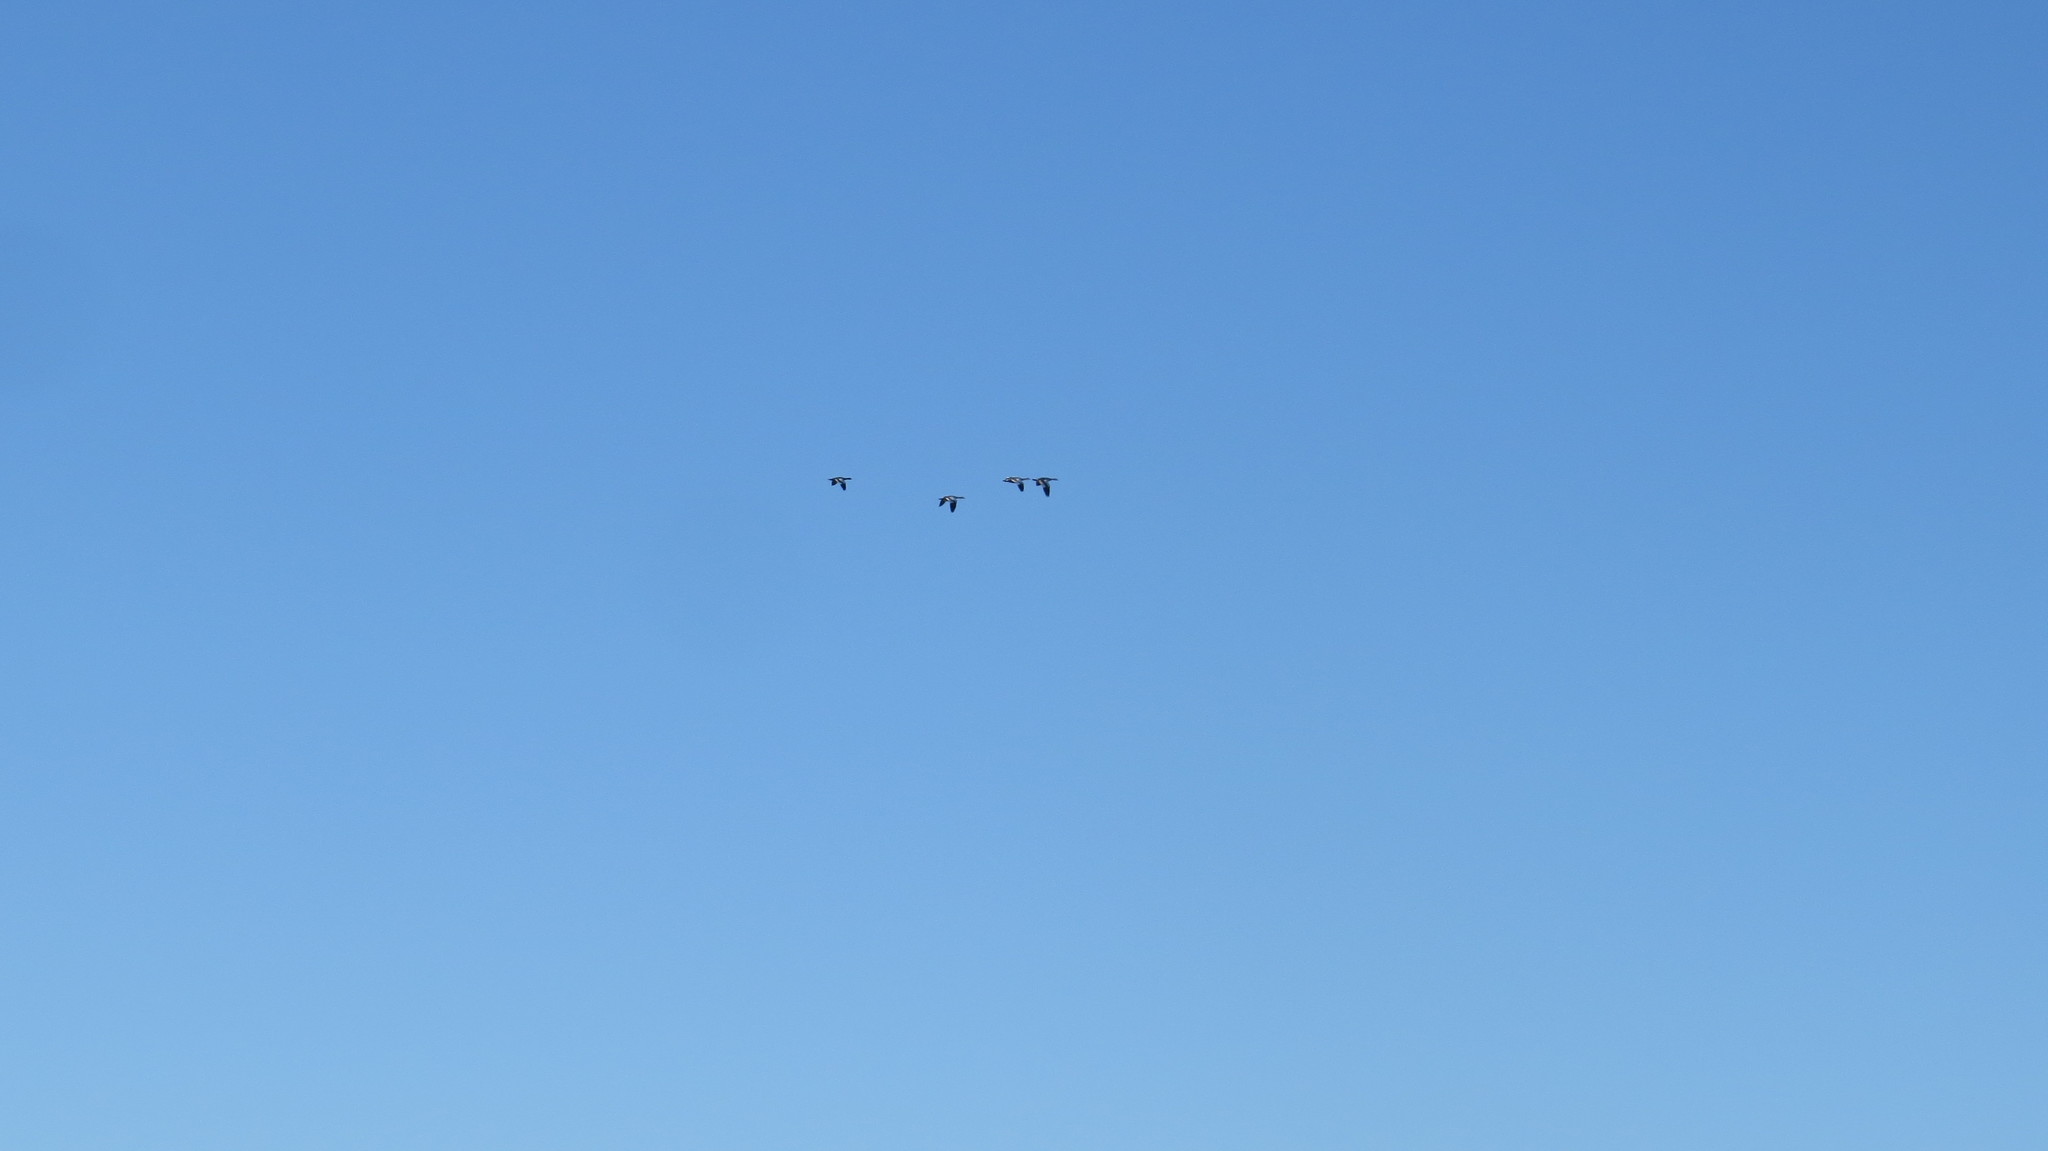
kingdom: Animalia
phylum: Chordata
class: Aves
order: Anseriformes
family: Anatidae
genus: Chloephaga
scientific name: Chloephaga picta
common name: Upland goose
